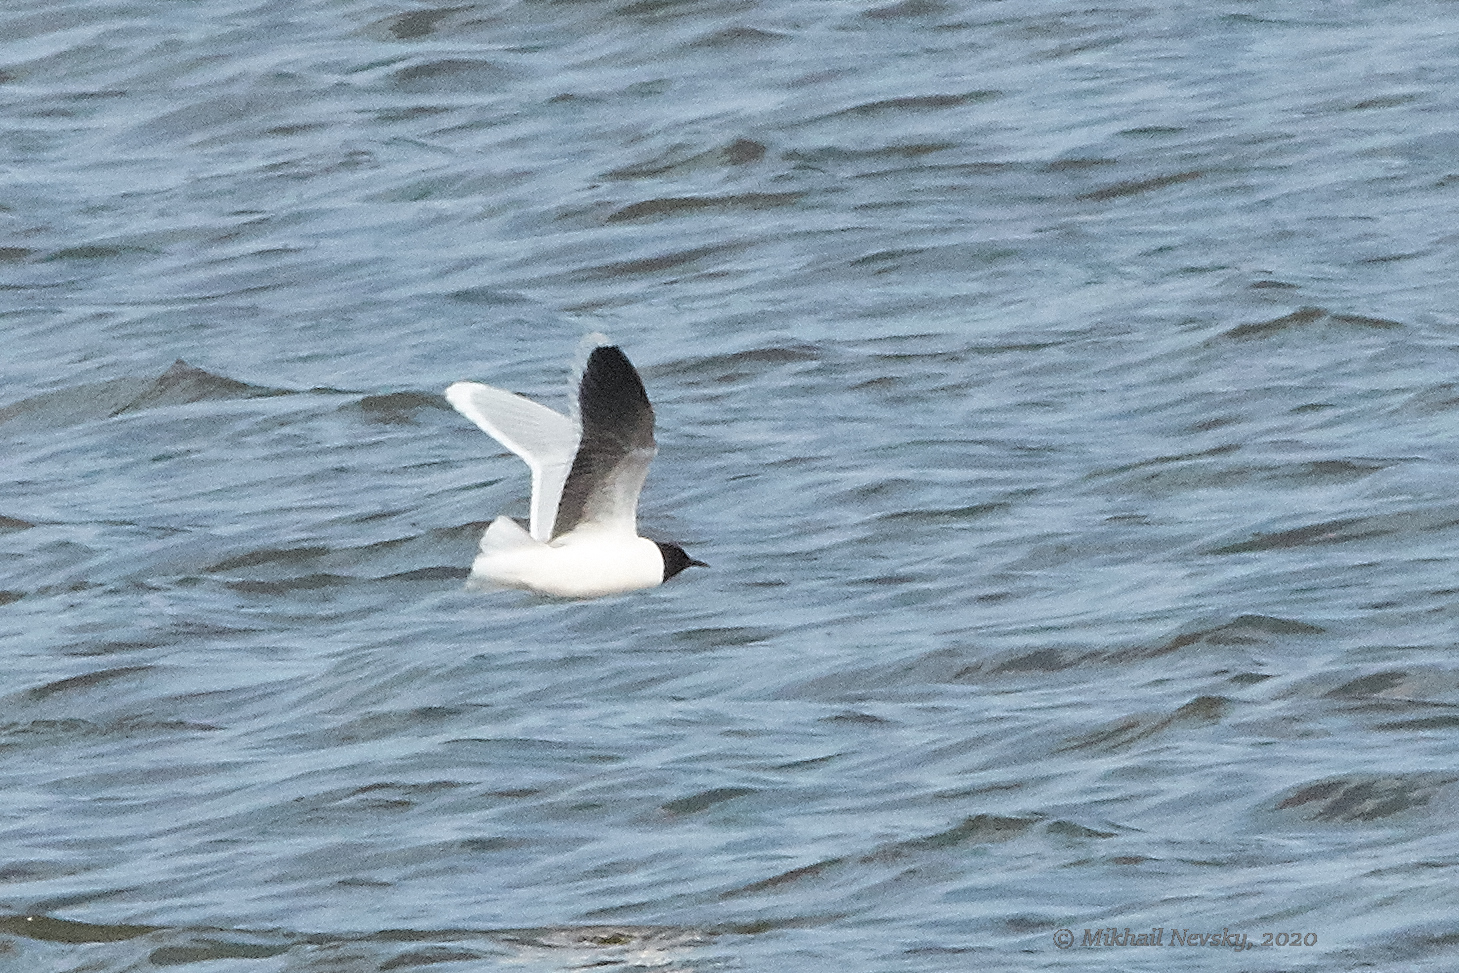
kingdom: Animalia
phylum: Chordata
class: Aves
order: Charadriiformes
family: Laridae
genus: Hydrocoloeus
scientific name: Hydrocoloeus minutus
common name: Little gull
